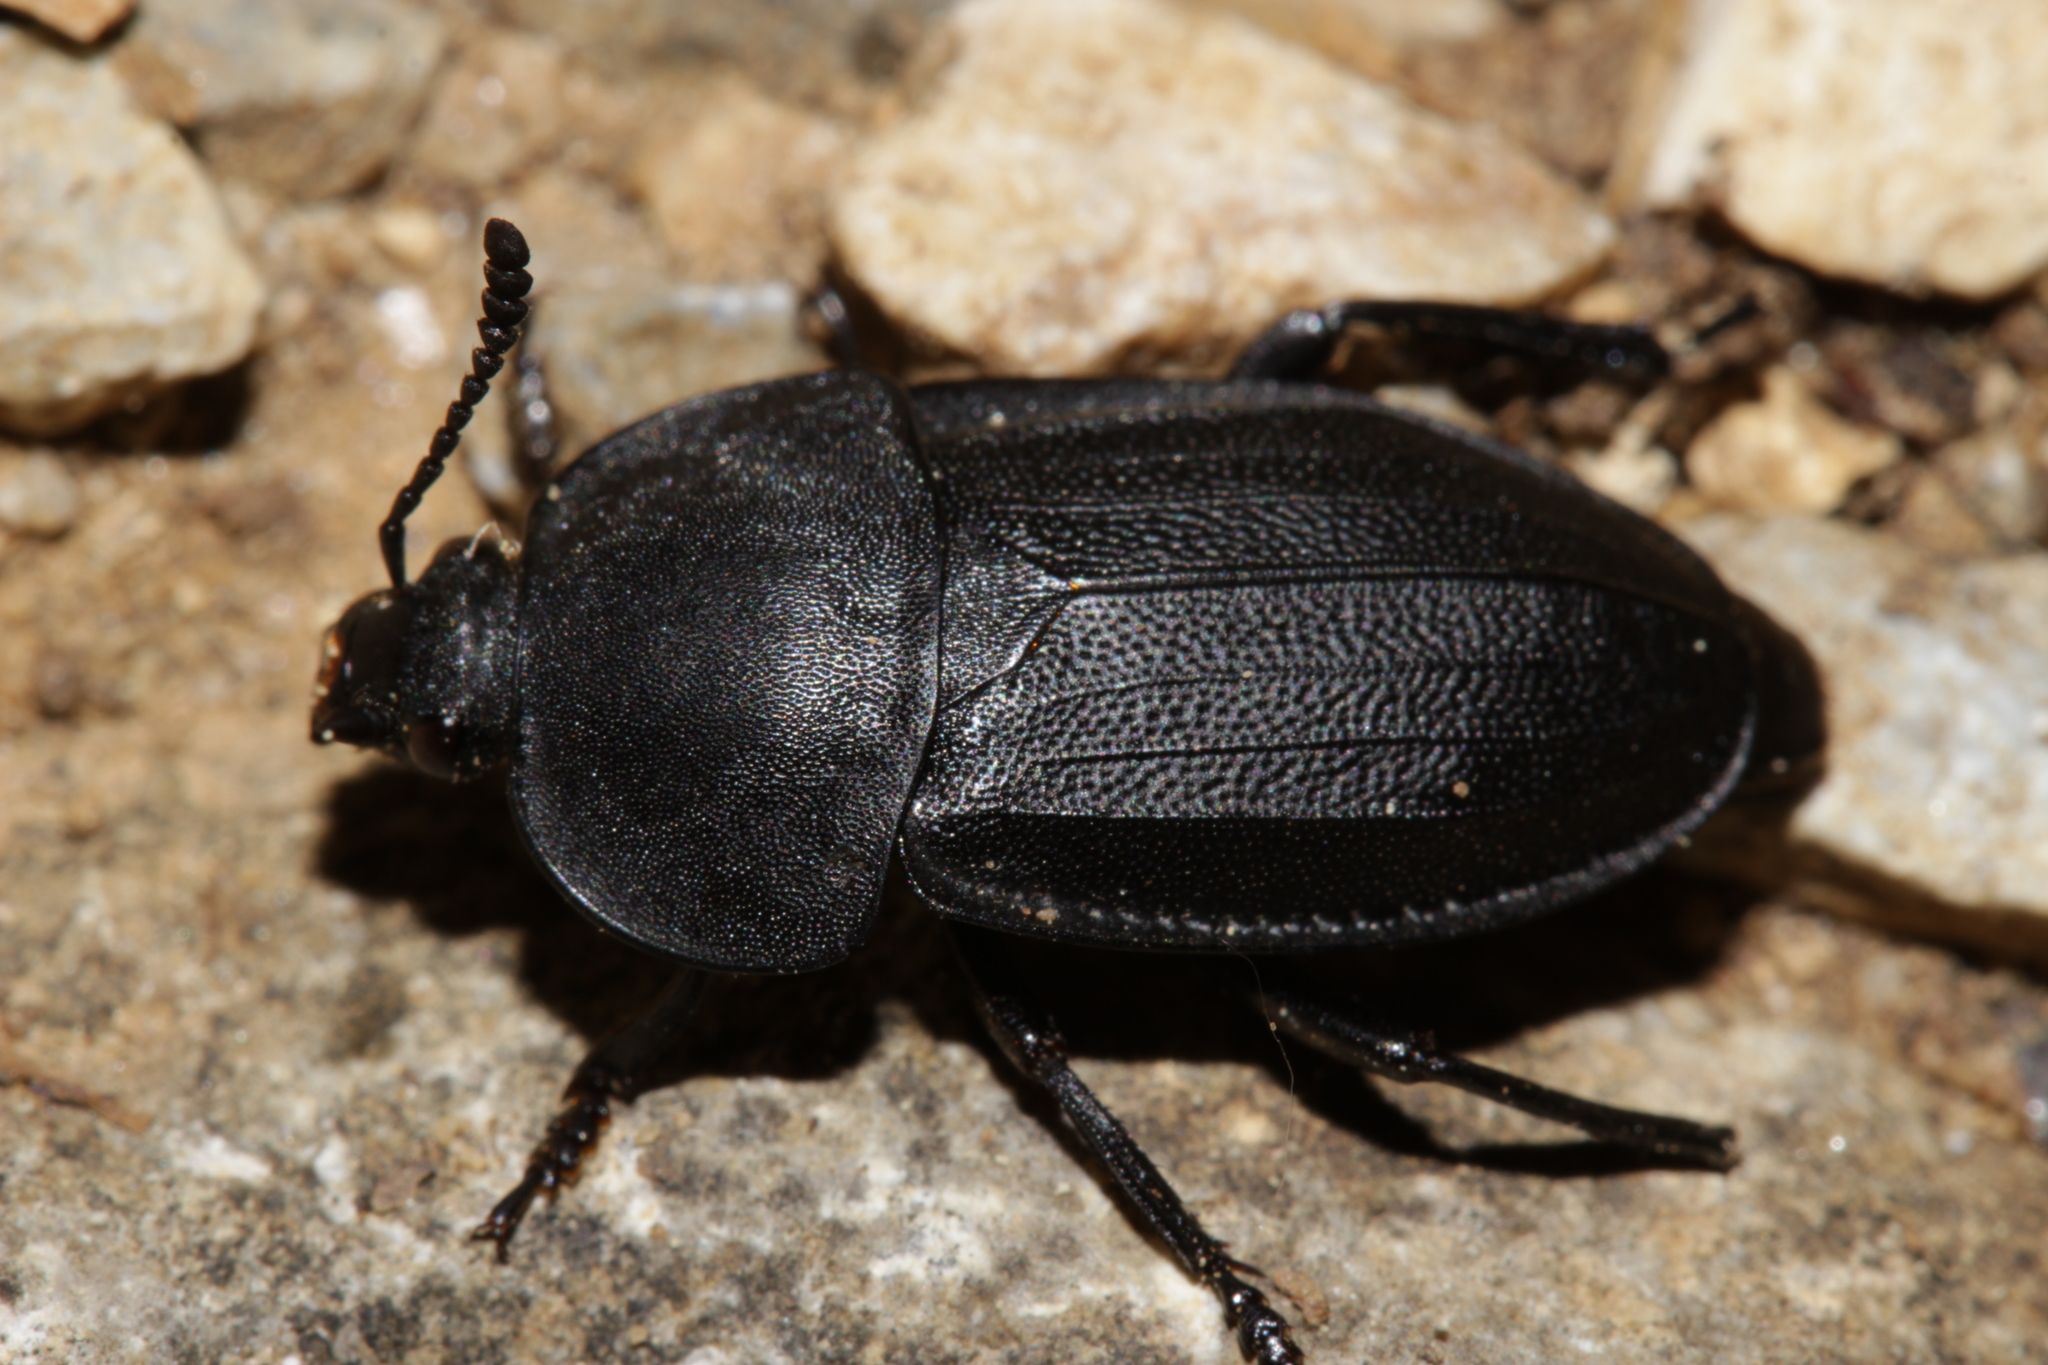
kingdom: Animalia
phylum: Arthropoda
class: Insecta
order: Coleoptera
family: Staphylinidae
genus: Silpha
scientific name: Silpha obscura
